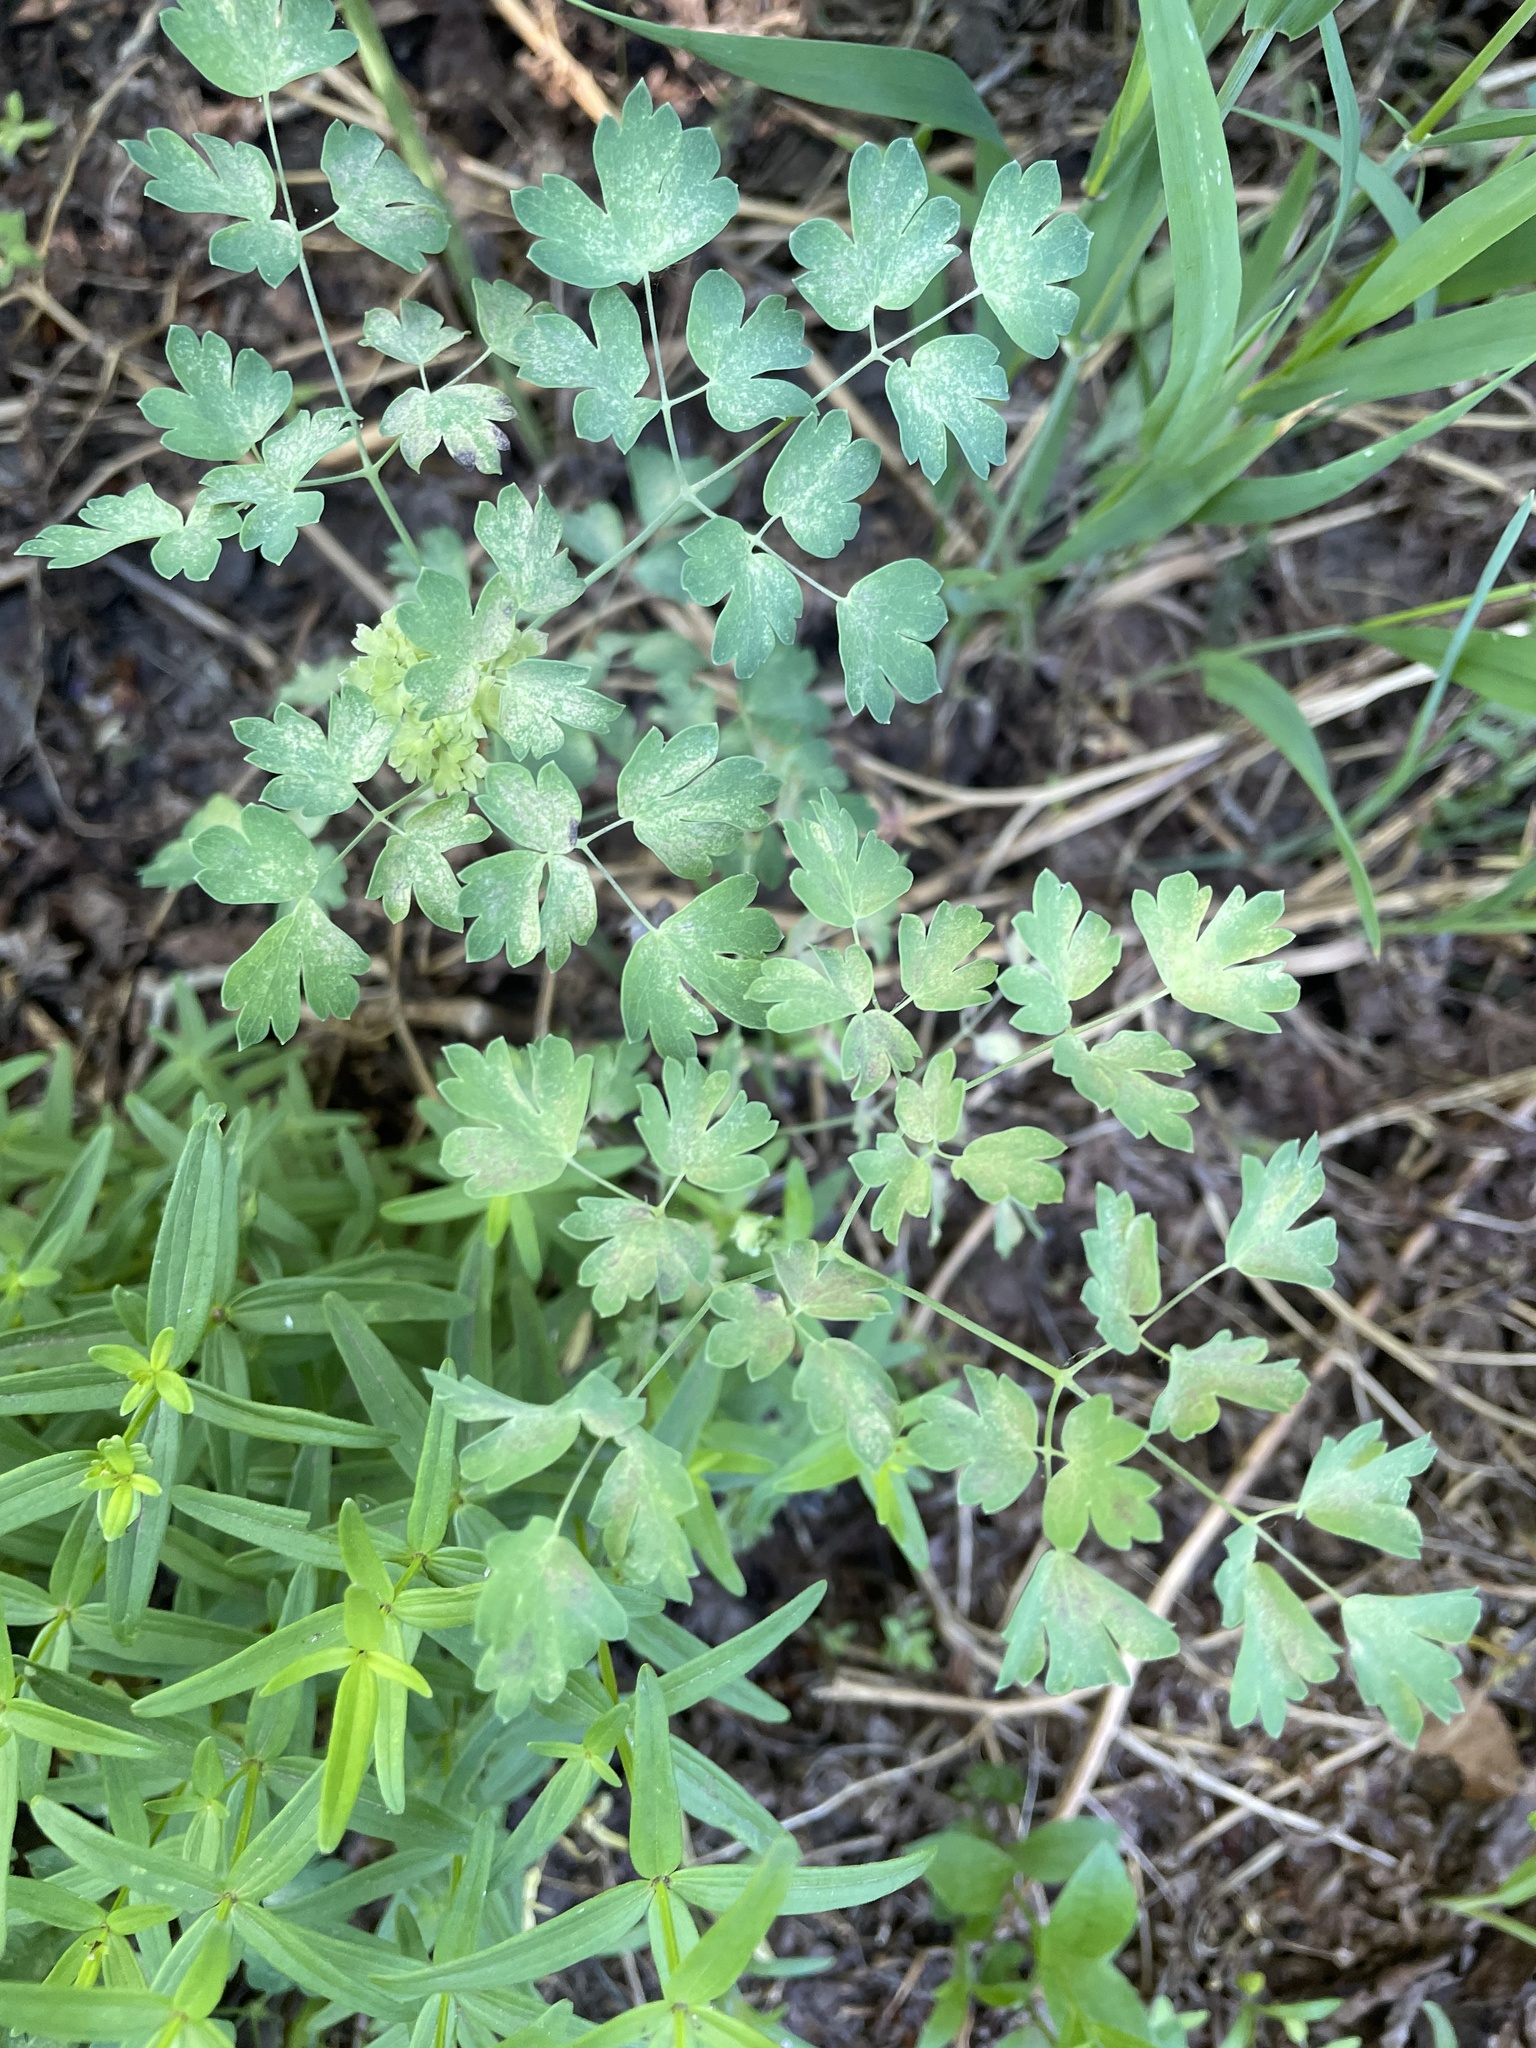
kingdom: Plantae
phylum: Tracheophyta
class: Magnoliopsida
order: Ranunculales
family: Ranunculaceae
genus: Thalictrum
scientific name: Thalictrum fendleri
